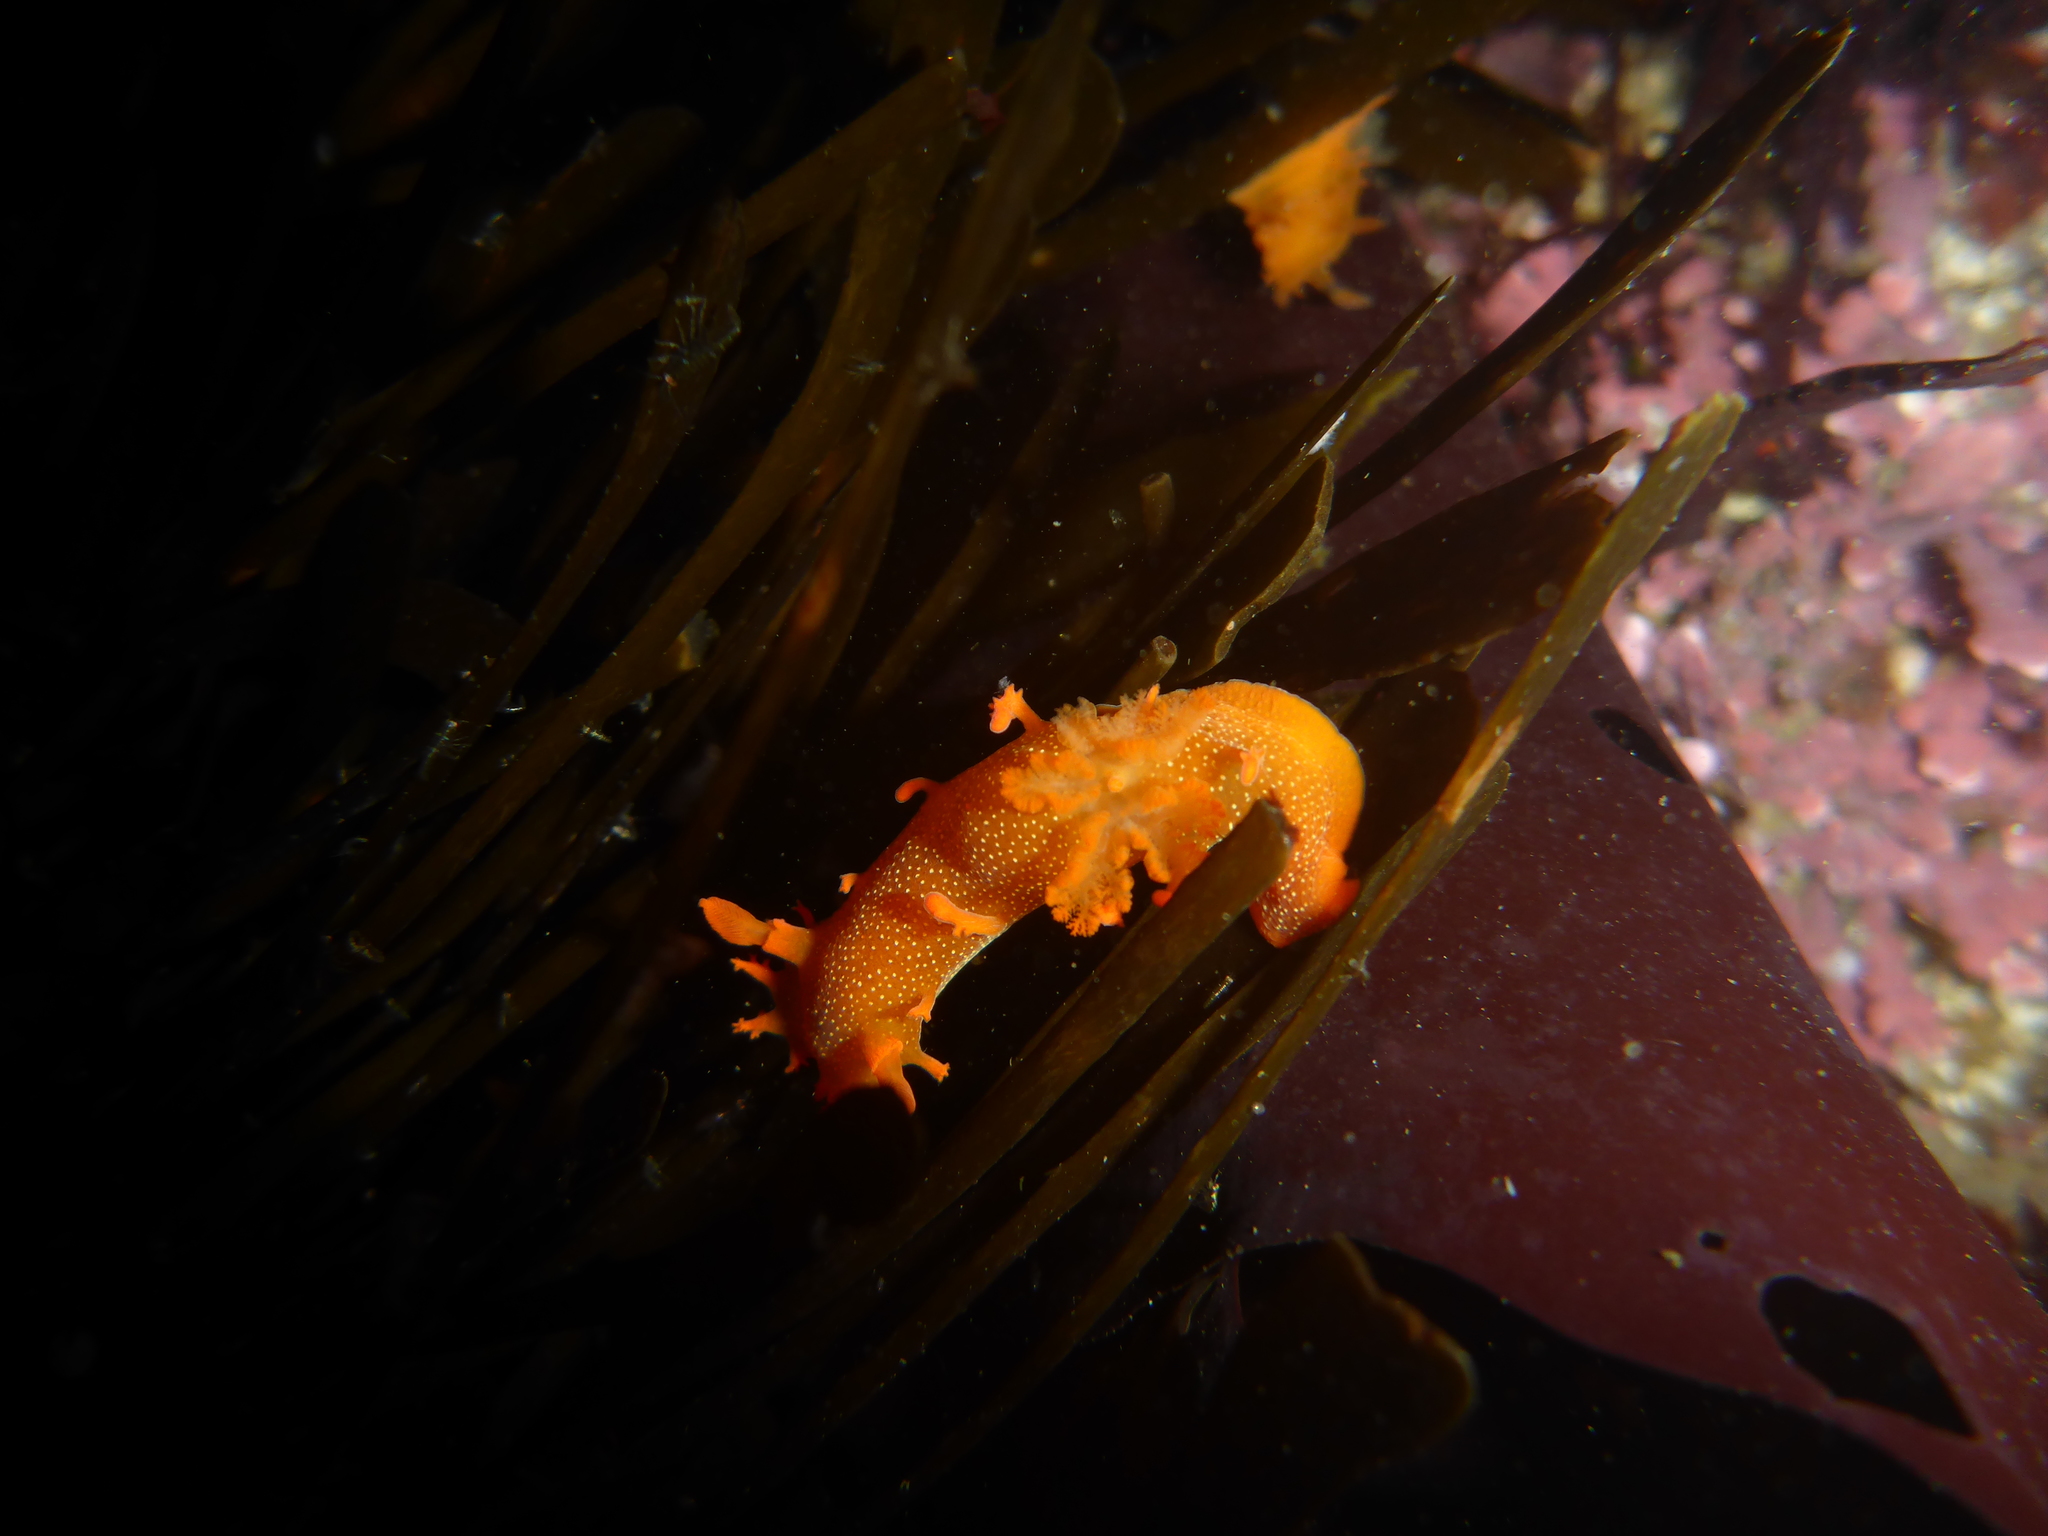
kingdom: Animalia
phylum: Mollusca
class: Gastropoda
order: Nudibranchia
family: Polyceridae
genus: Triopha
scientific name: Triopha maculata
